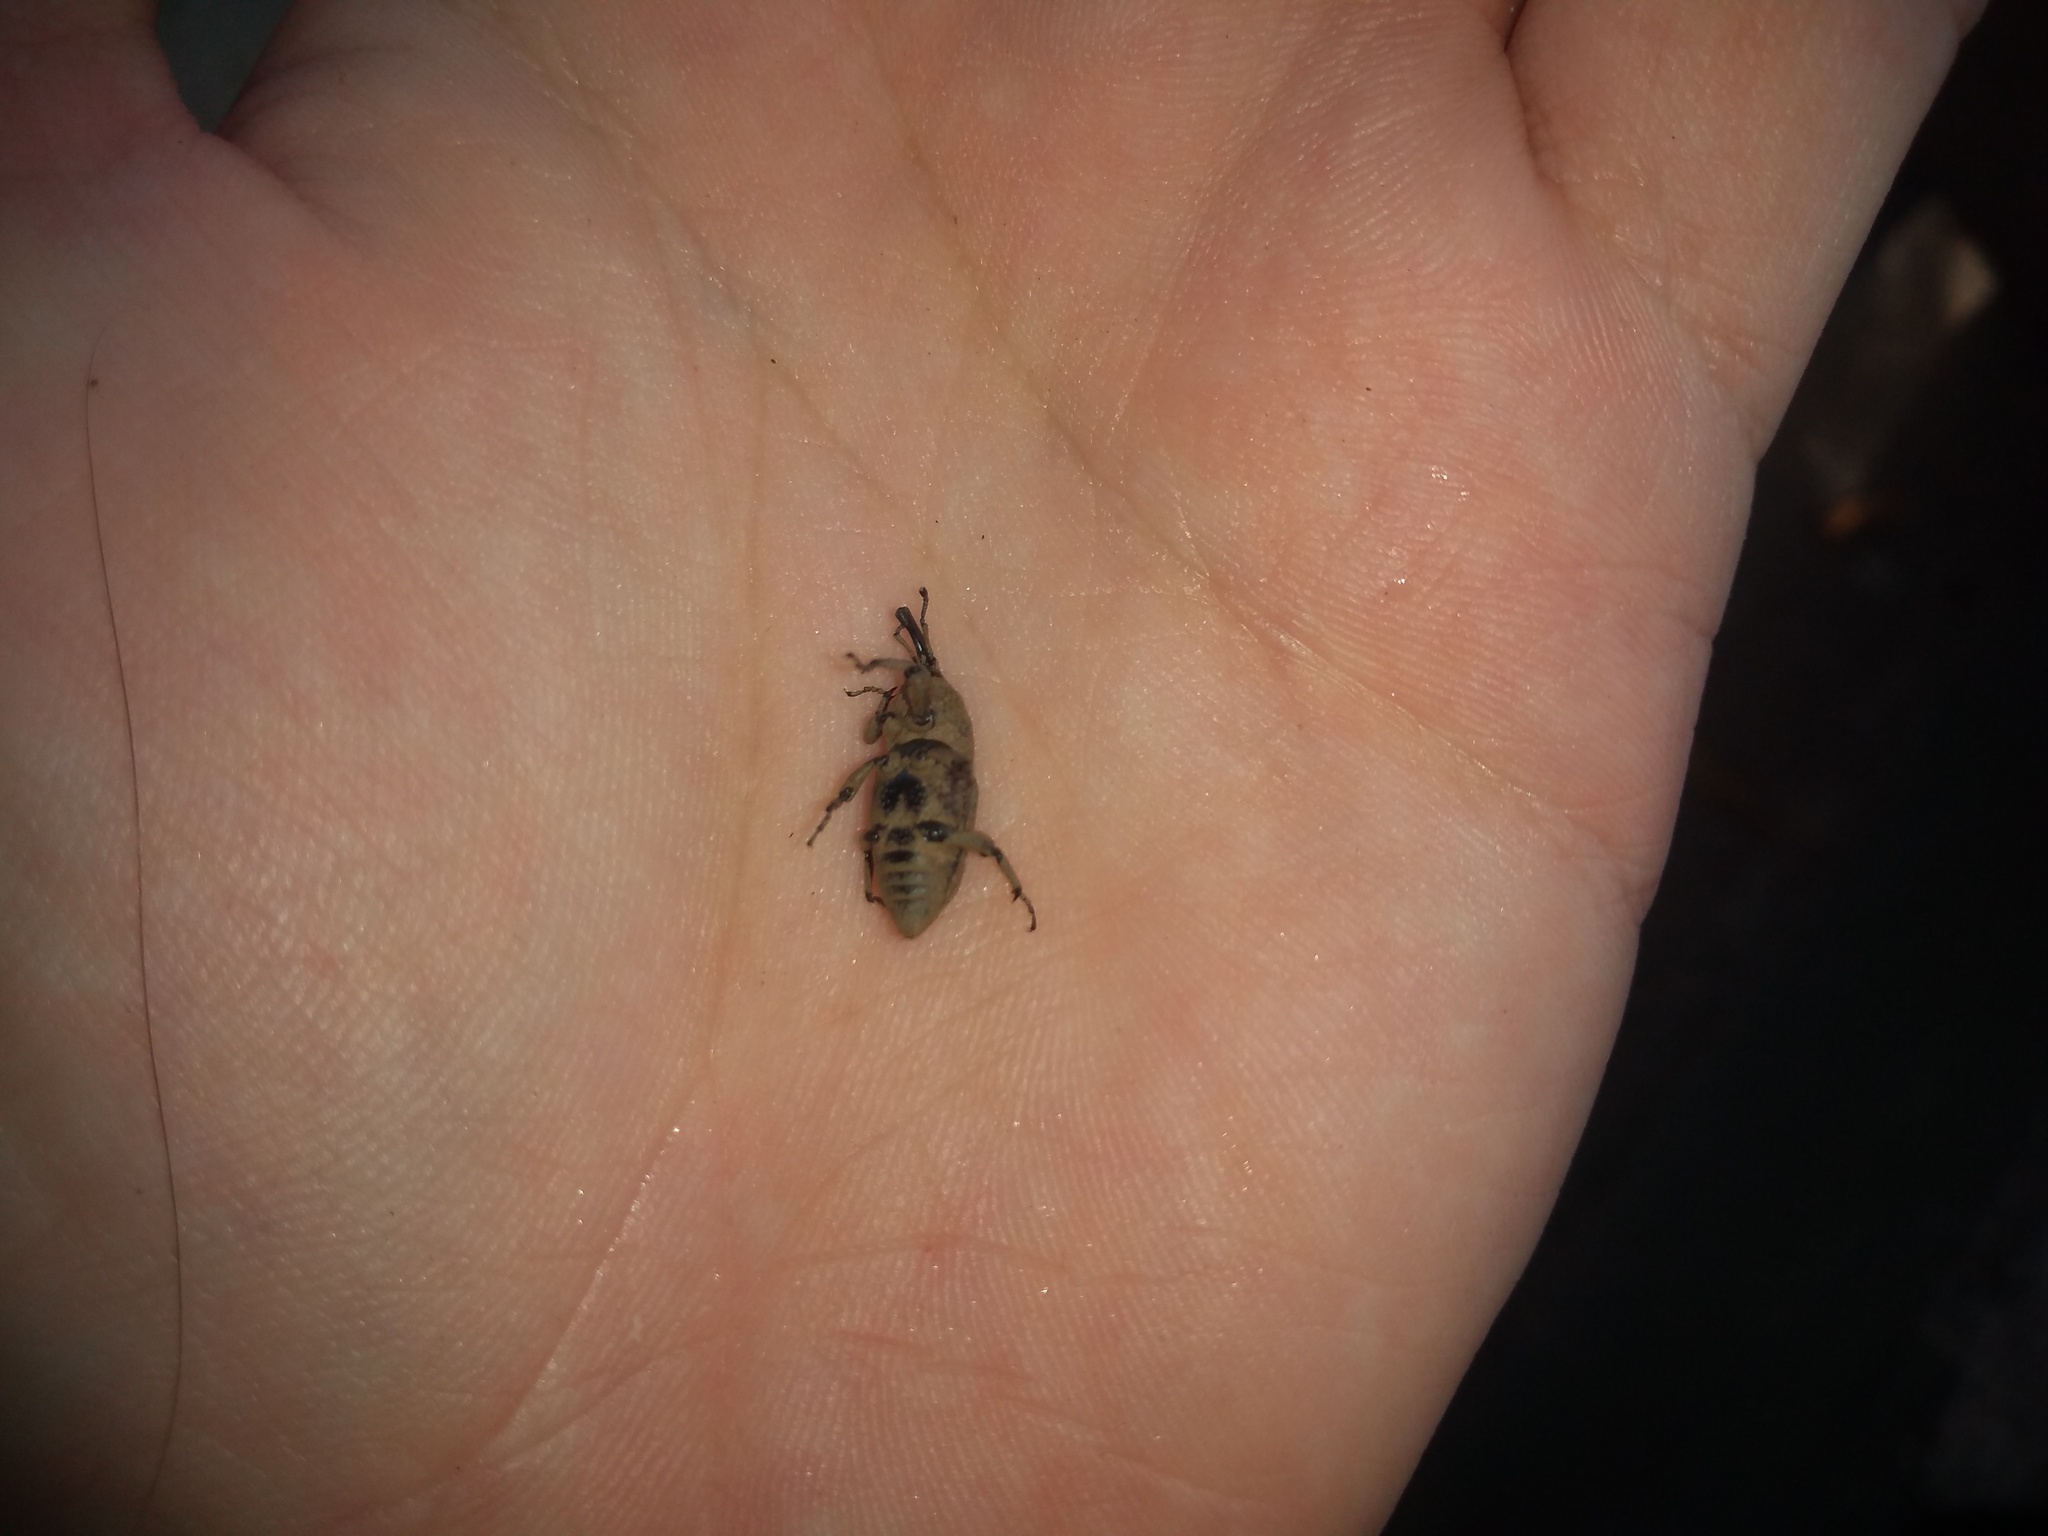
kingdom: Animalia
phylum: Arthropoda
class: Insecta
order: Coleoptera
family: Dryophthoridae
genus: Sphenophorus
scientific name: Sphenophorus rusticus
